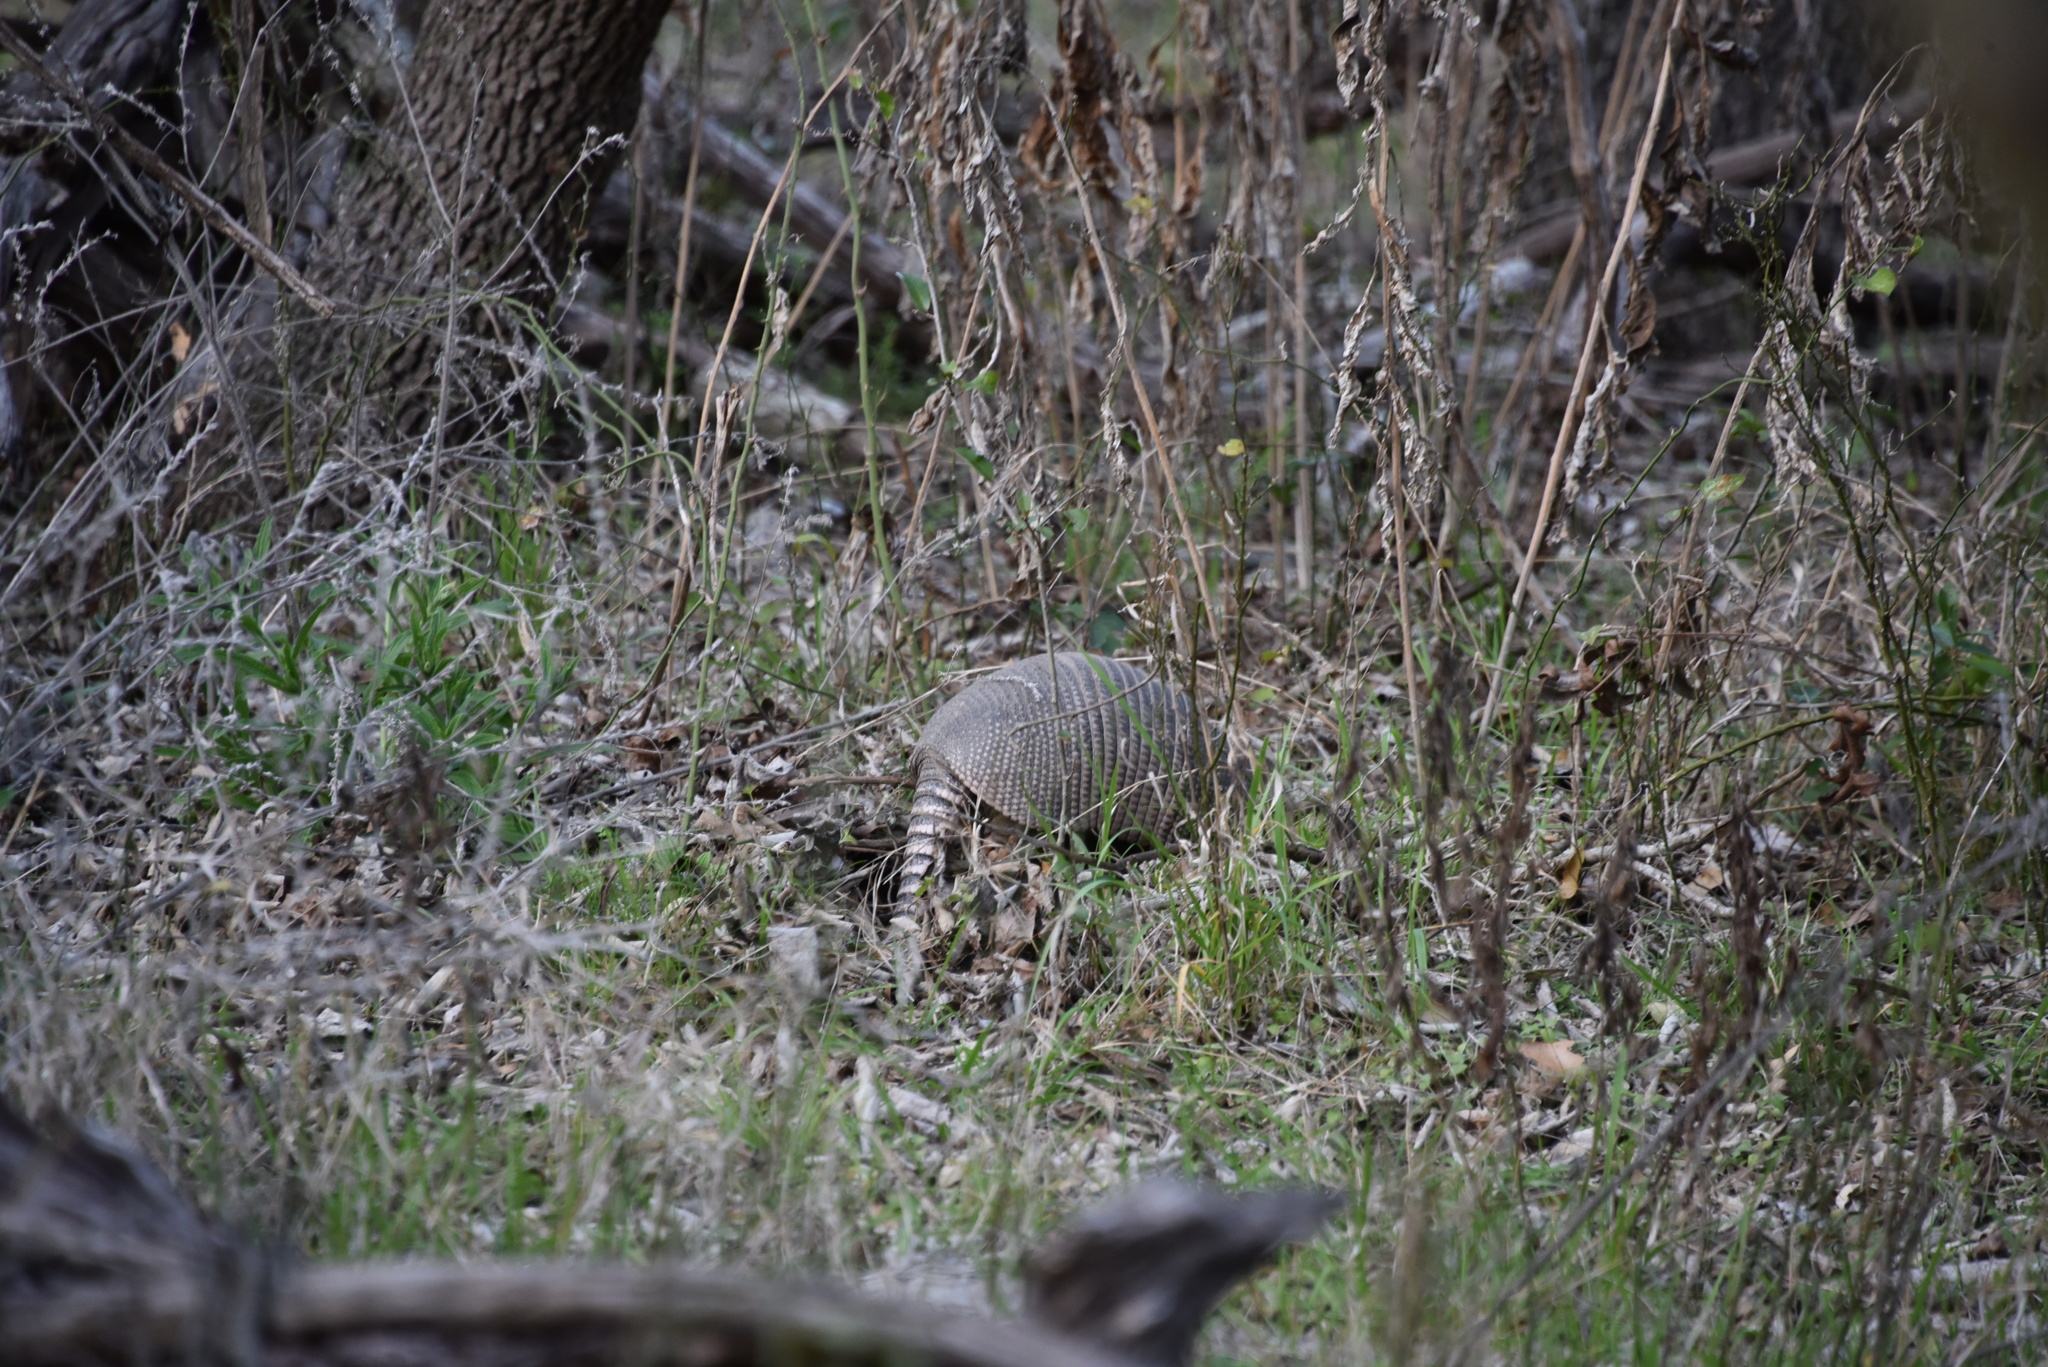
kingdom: Animalia
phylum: Chordata
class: Mammalia
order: Cingulata
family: Dasypodidae
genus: Dasypus
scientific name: Dasypus novemcinctus
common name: Nine-banded armadillo
